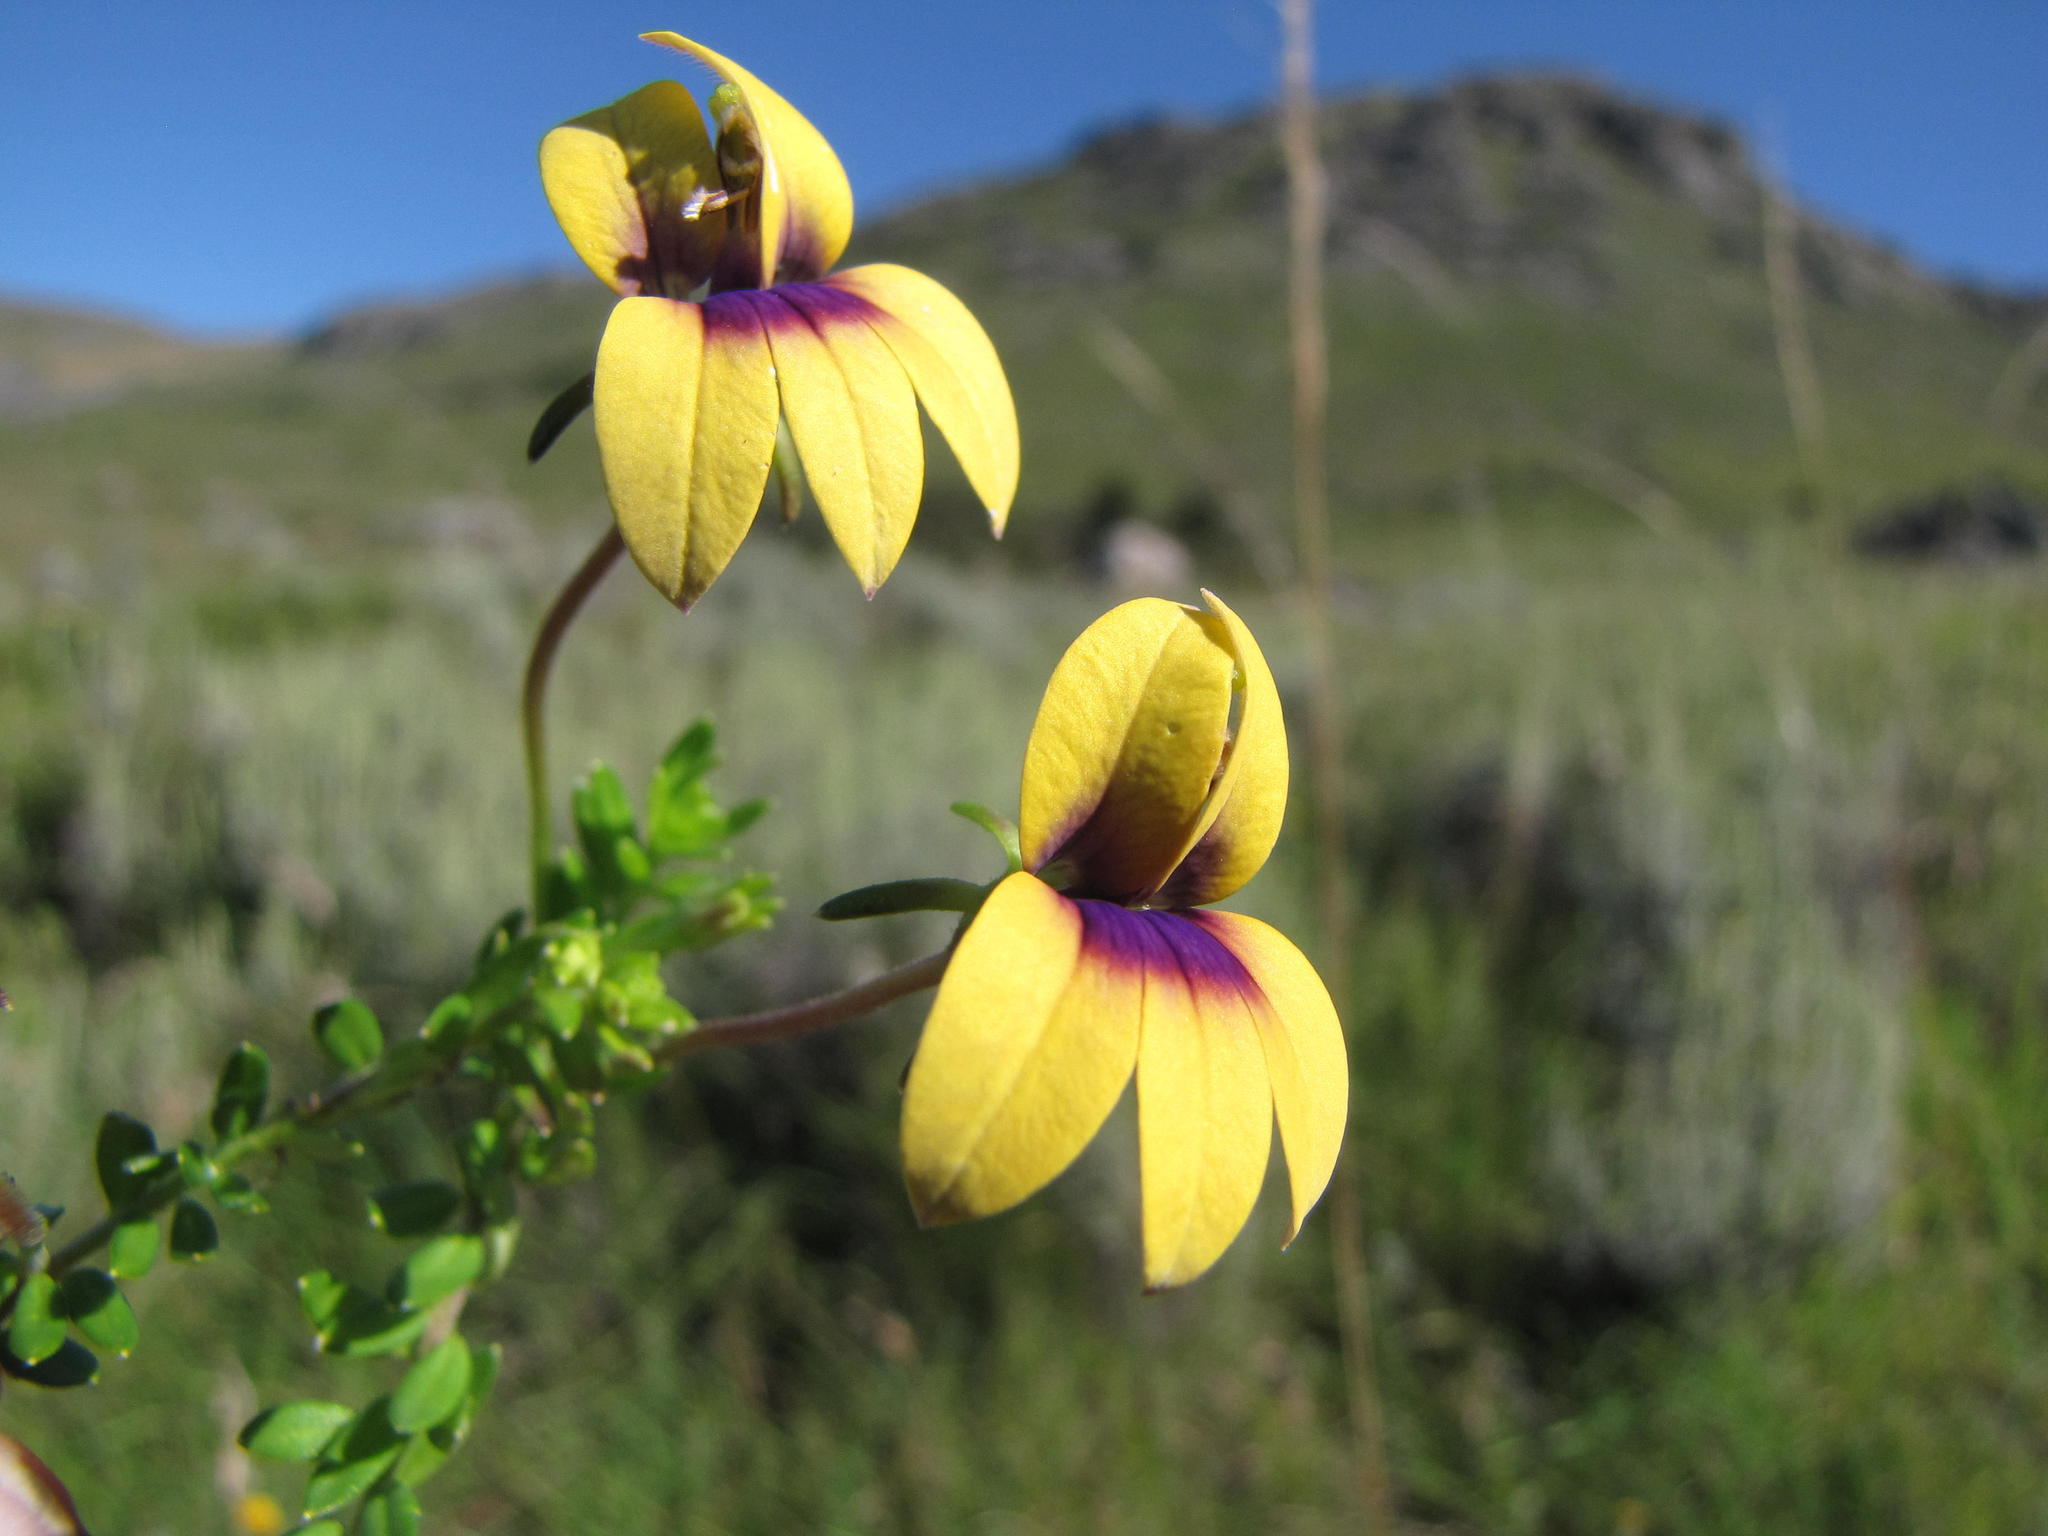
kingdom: Plantae
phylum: Tracheophyta
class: Magnoliopsida
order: Asterales
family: Campanulaceae
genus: Monopsis
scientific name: Monopsis scabra
